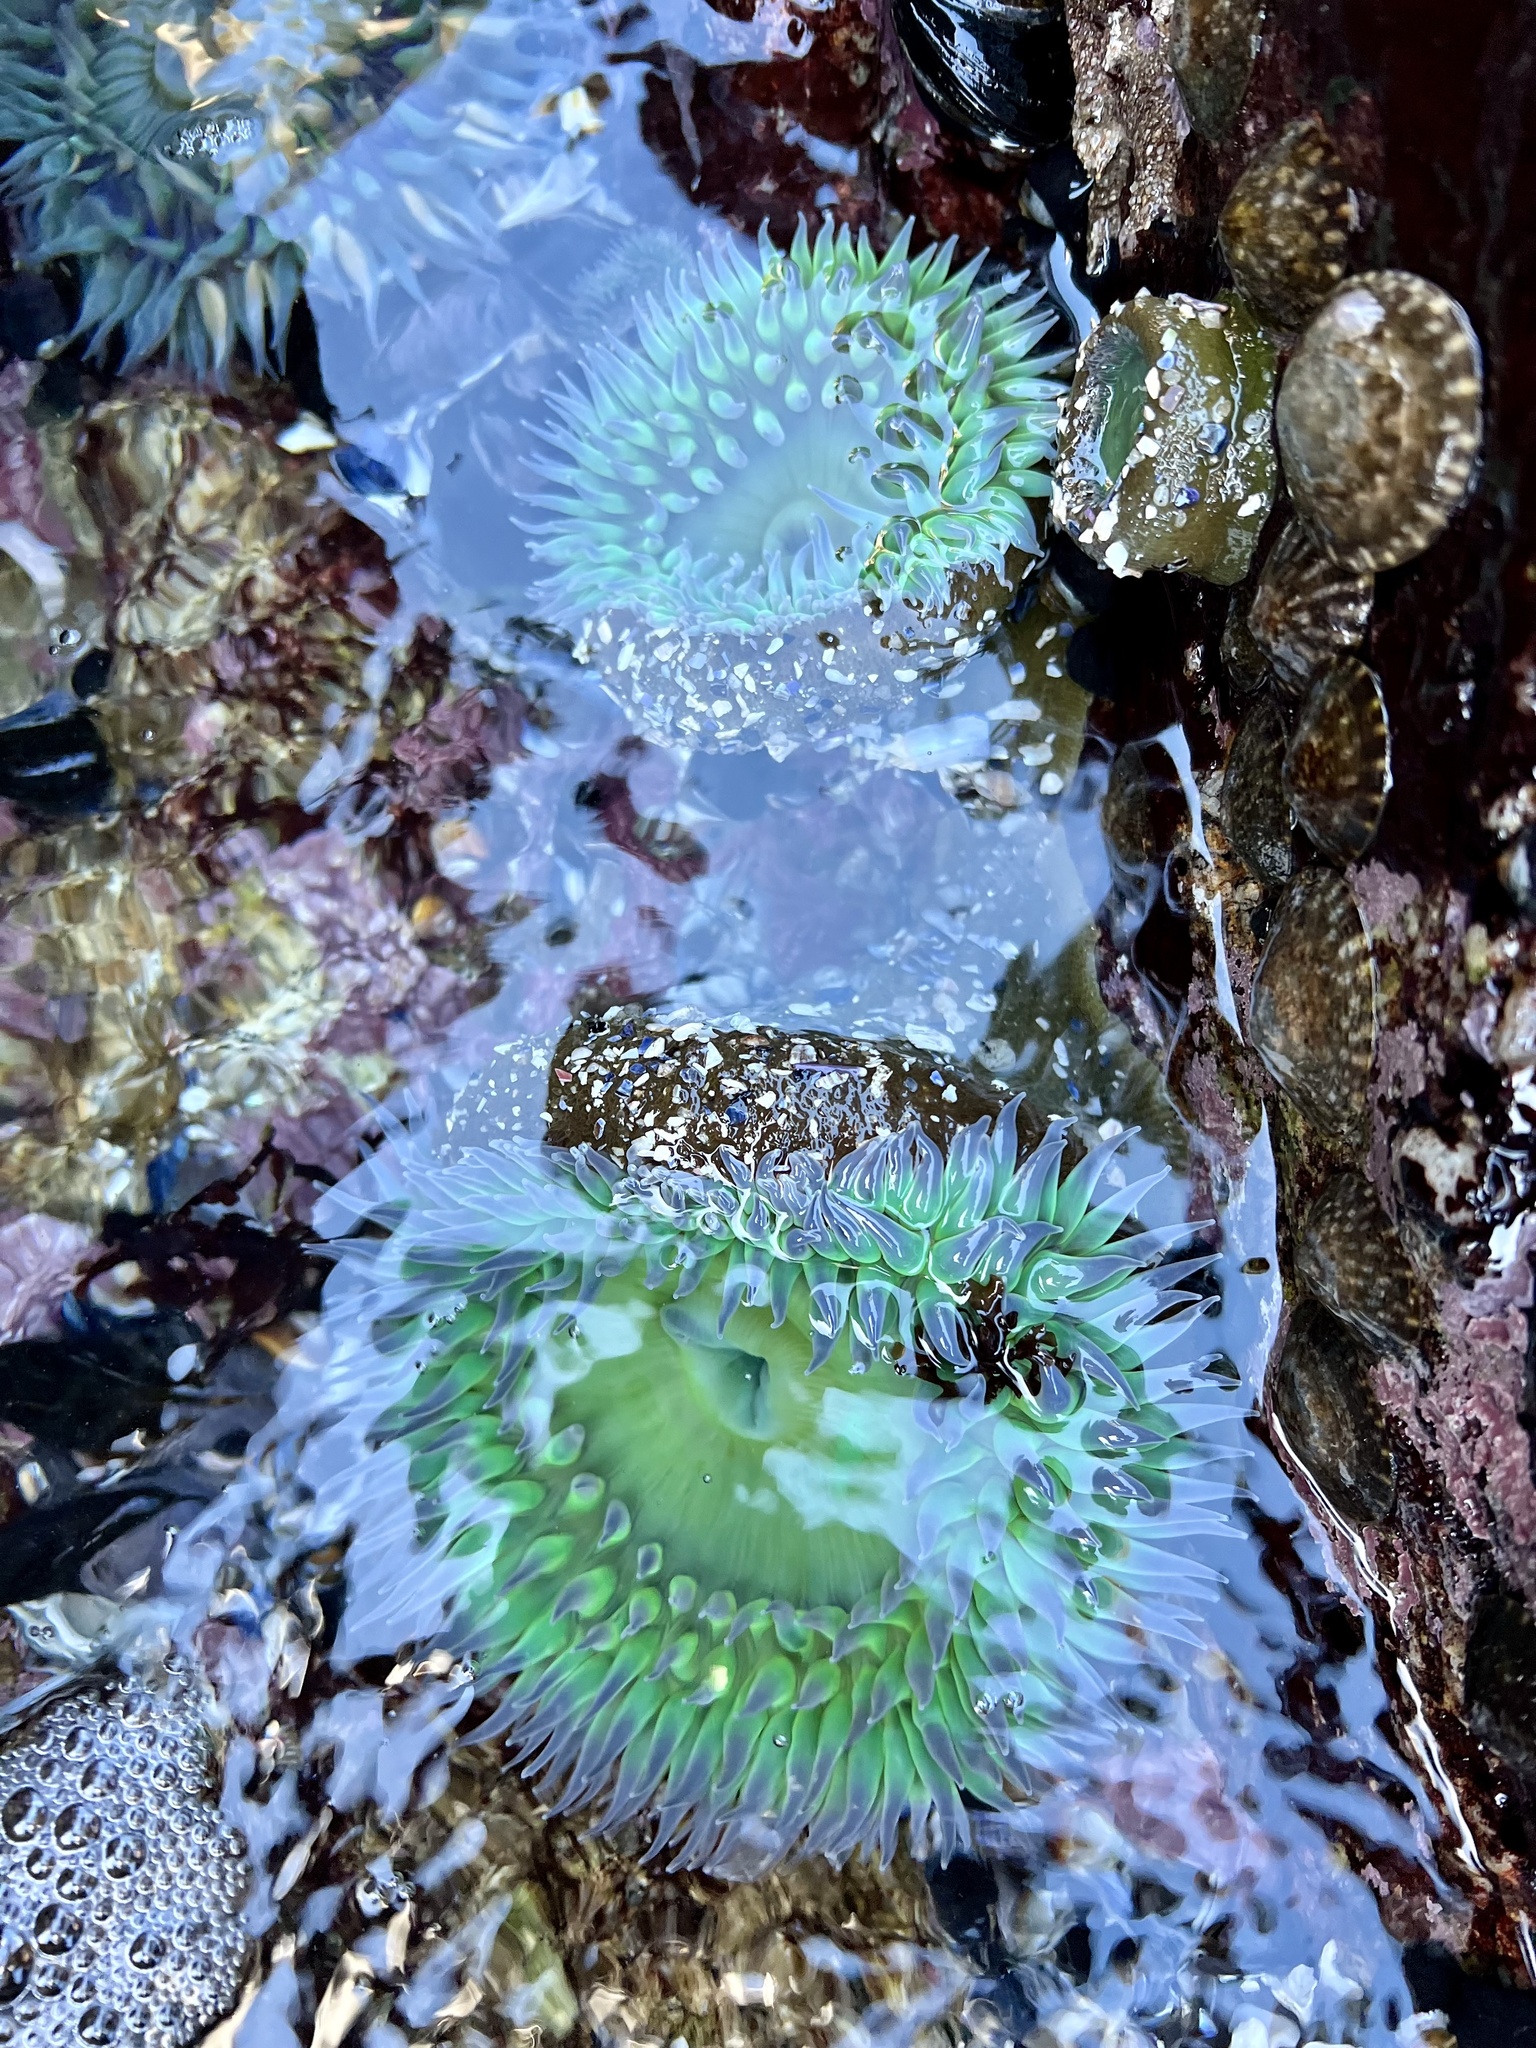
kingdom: Animalia
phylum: Cnidaria
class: Anthozoa
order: Actiniaria
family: Actiniidae
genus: Anthopleura
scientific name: Anthopleura xanthogrammica
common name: Giant green anemone
